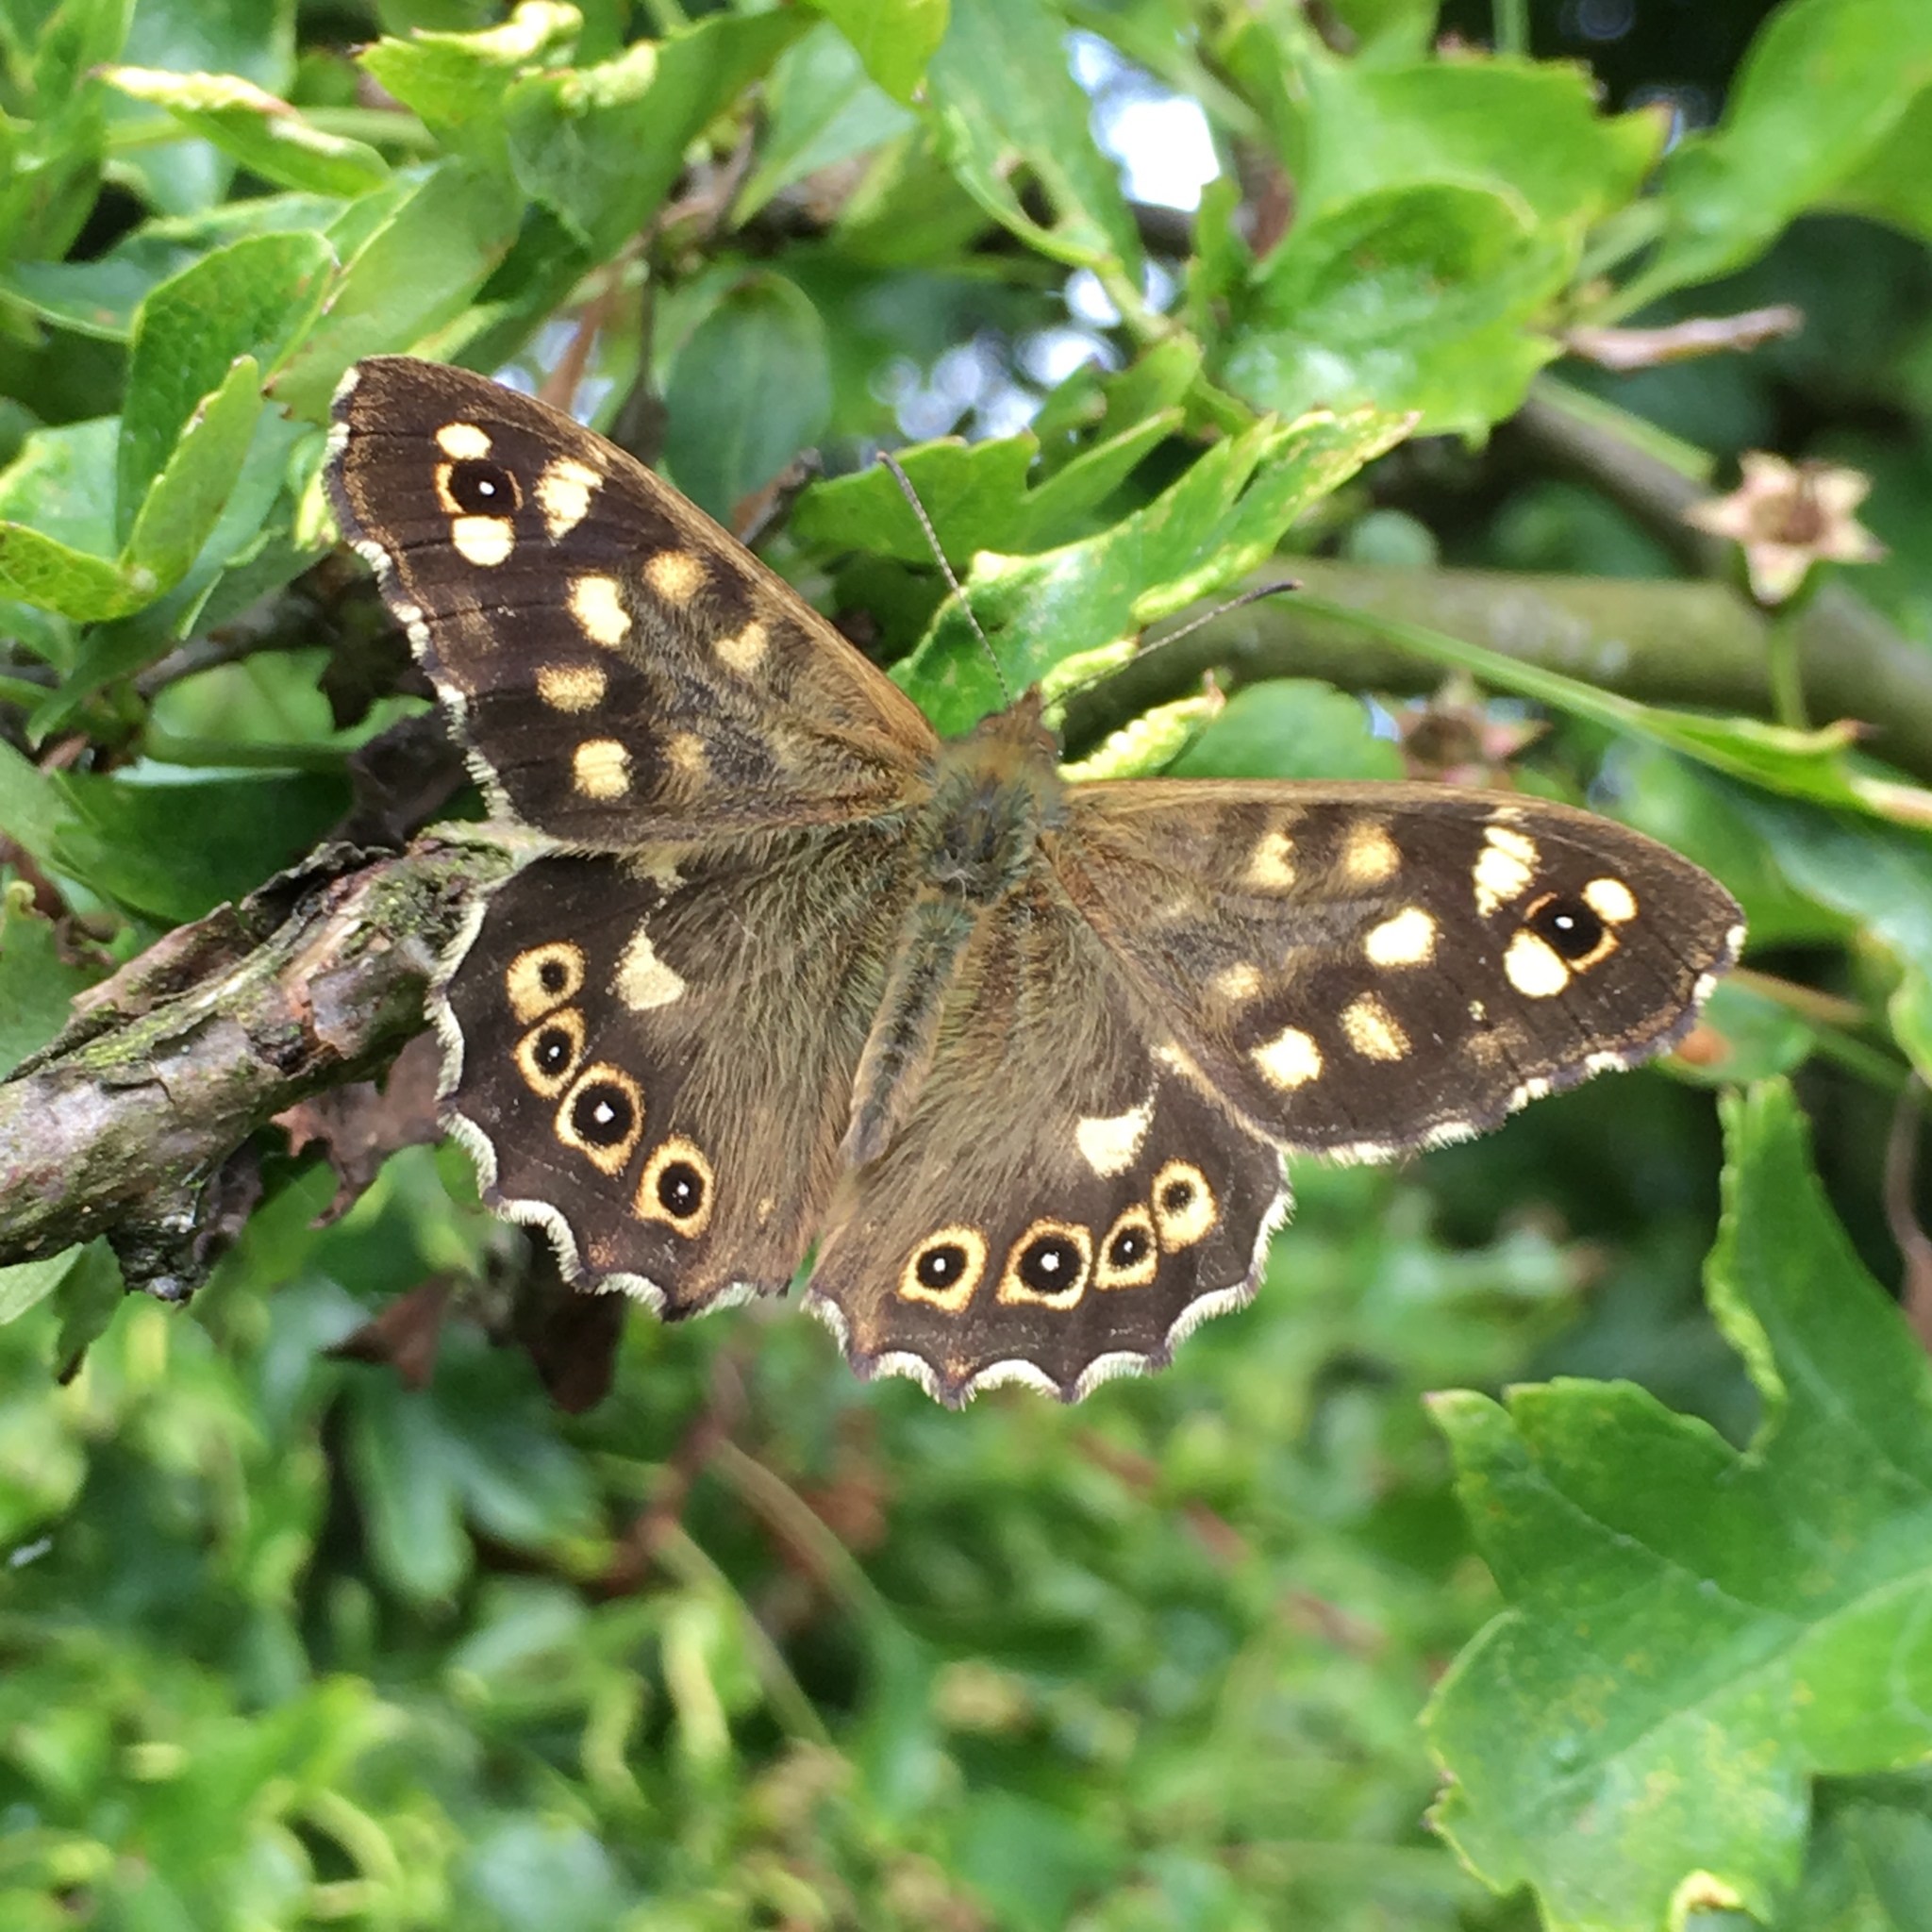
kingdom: Animalia
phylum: Arthropoda
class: Insecta
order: Lepidoptera
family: Nymphalidae
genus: Pararge
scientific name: Pararge aegeria
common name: Speckled wood
